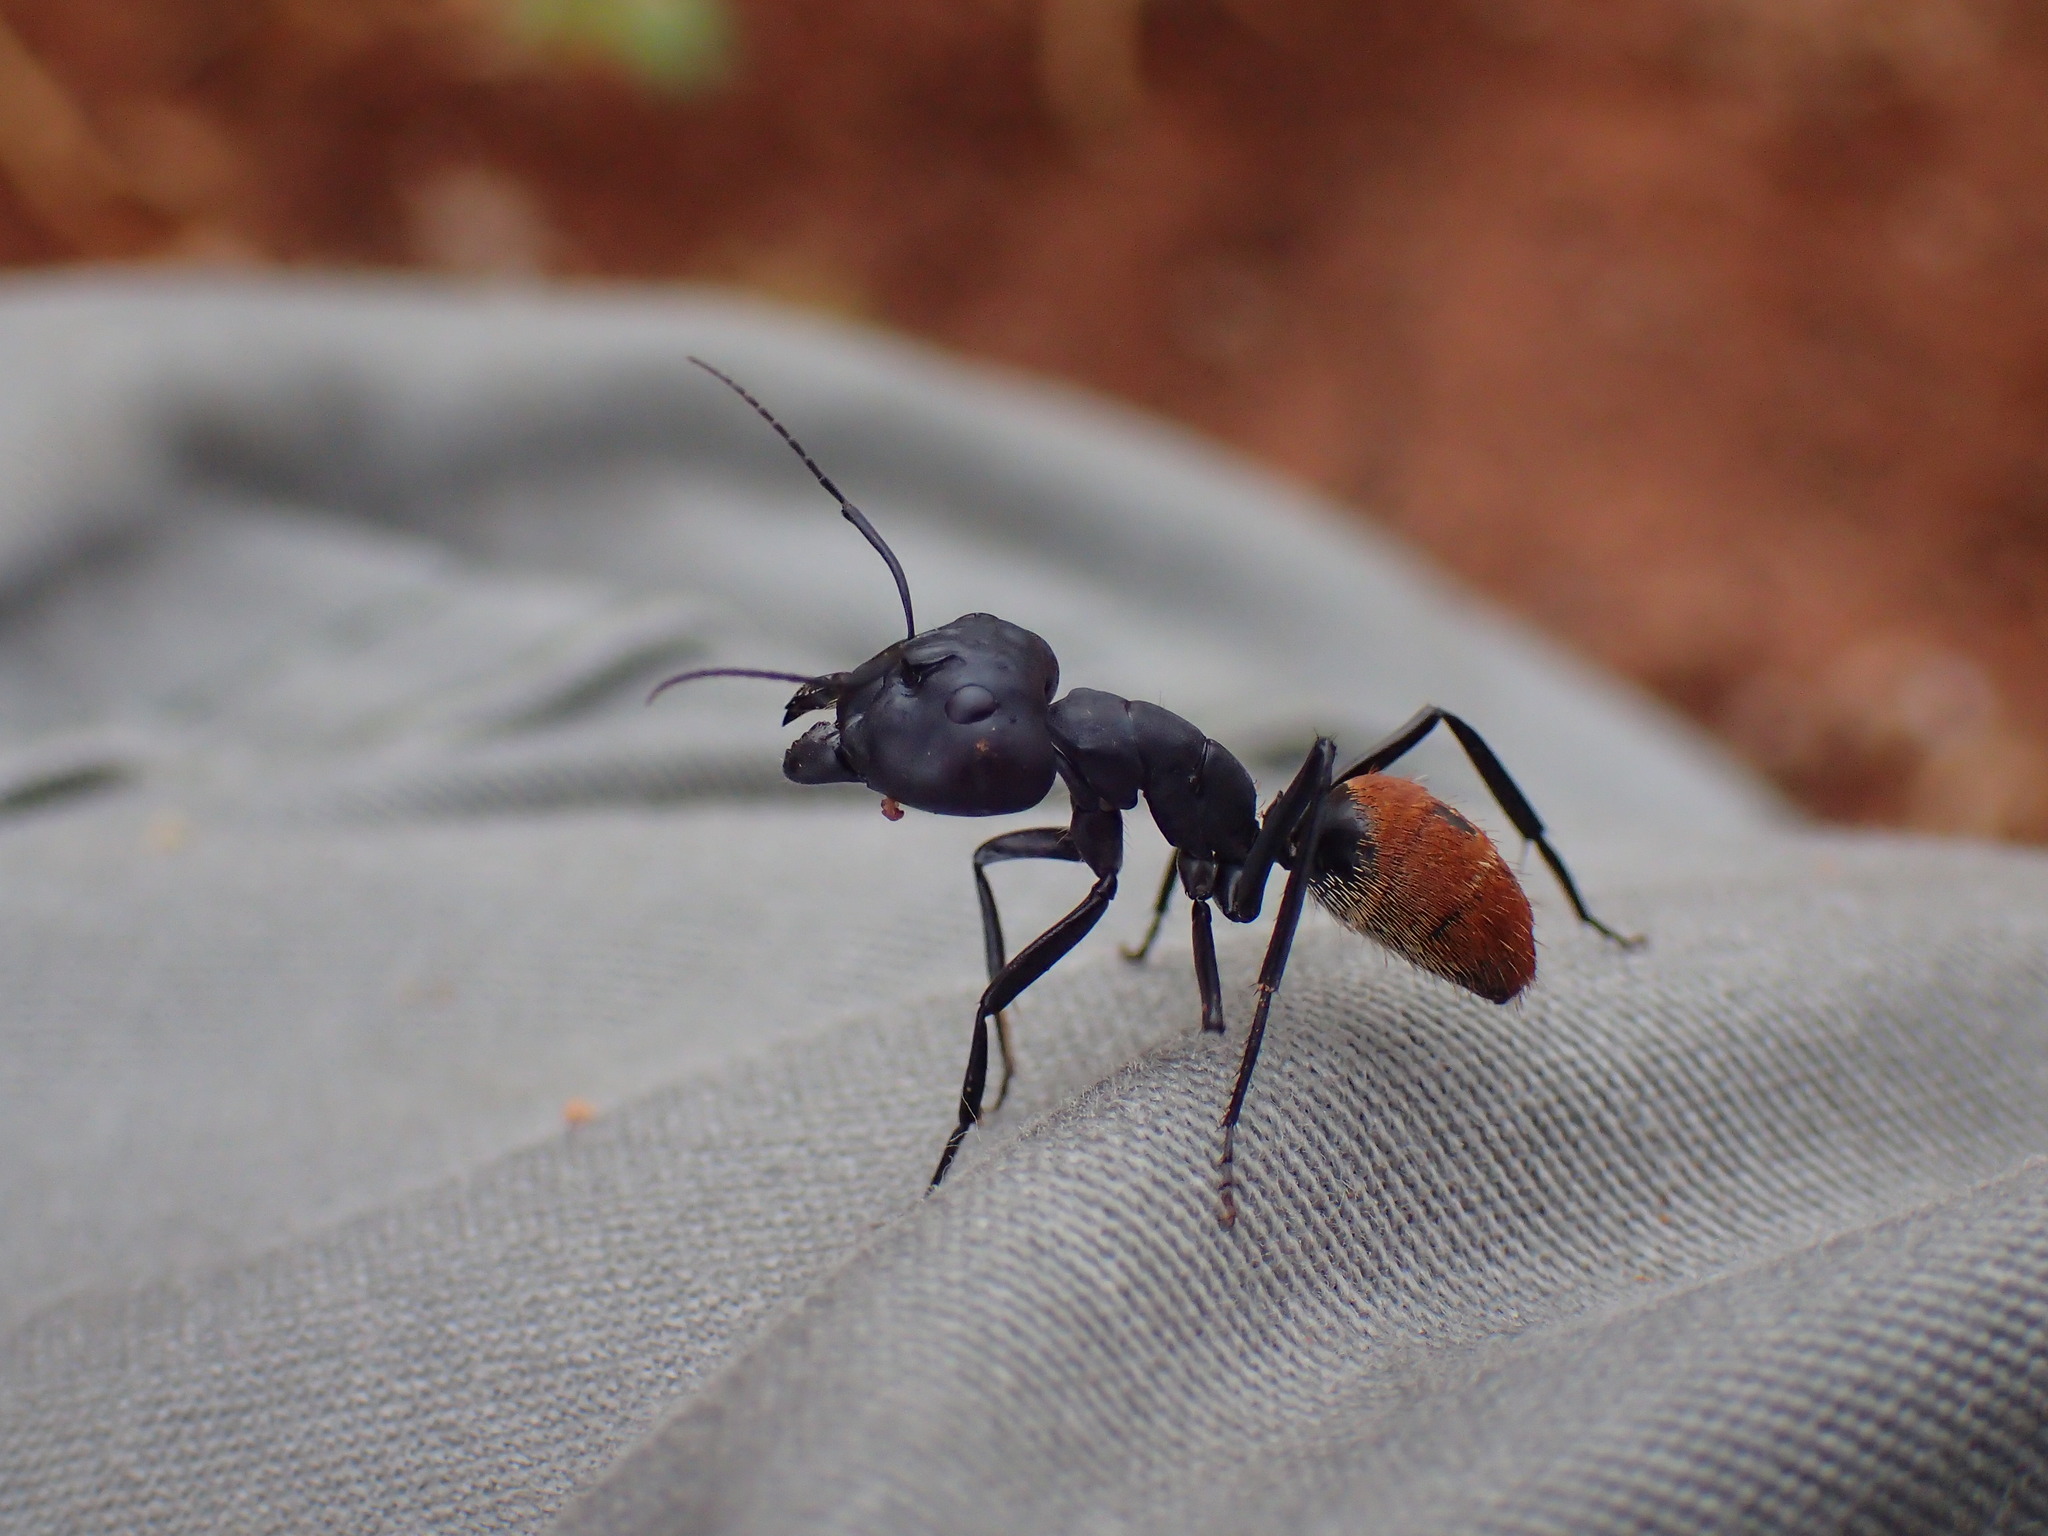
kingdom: Animalia
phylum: Arthropoda
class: Insecta
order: Hymenoptera
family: Formicidae
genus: Camponotus
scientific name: Camponotus fulvopilosus
